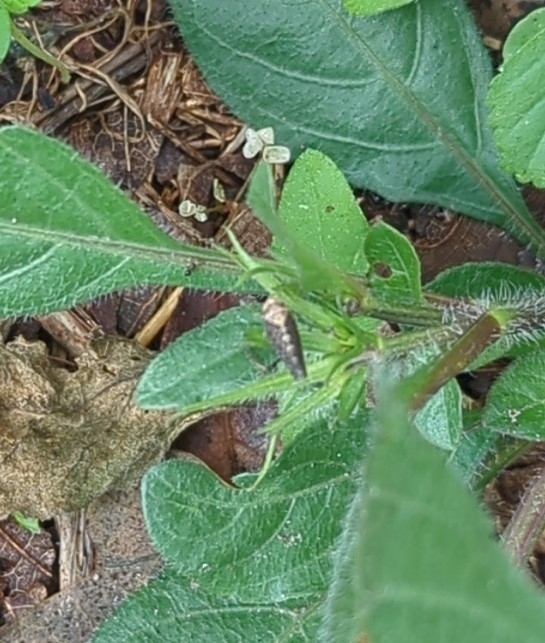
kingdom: Animalia
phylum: Arthropoda
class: Insecta
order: Hemiptera
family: Cicadellidae
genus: Excultanus
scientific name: Excultanus excultus
